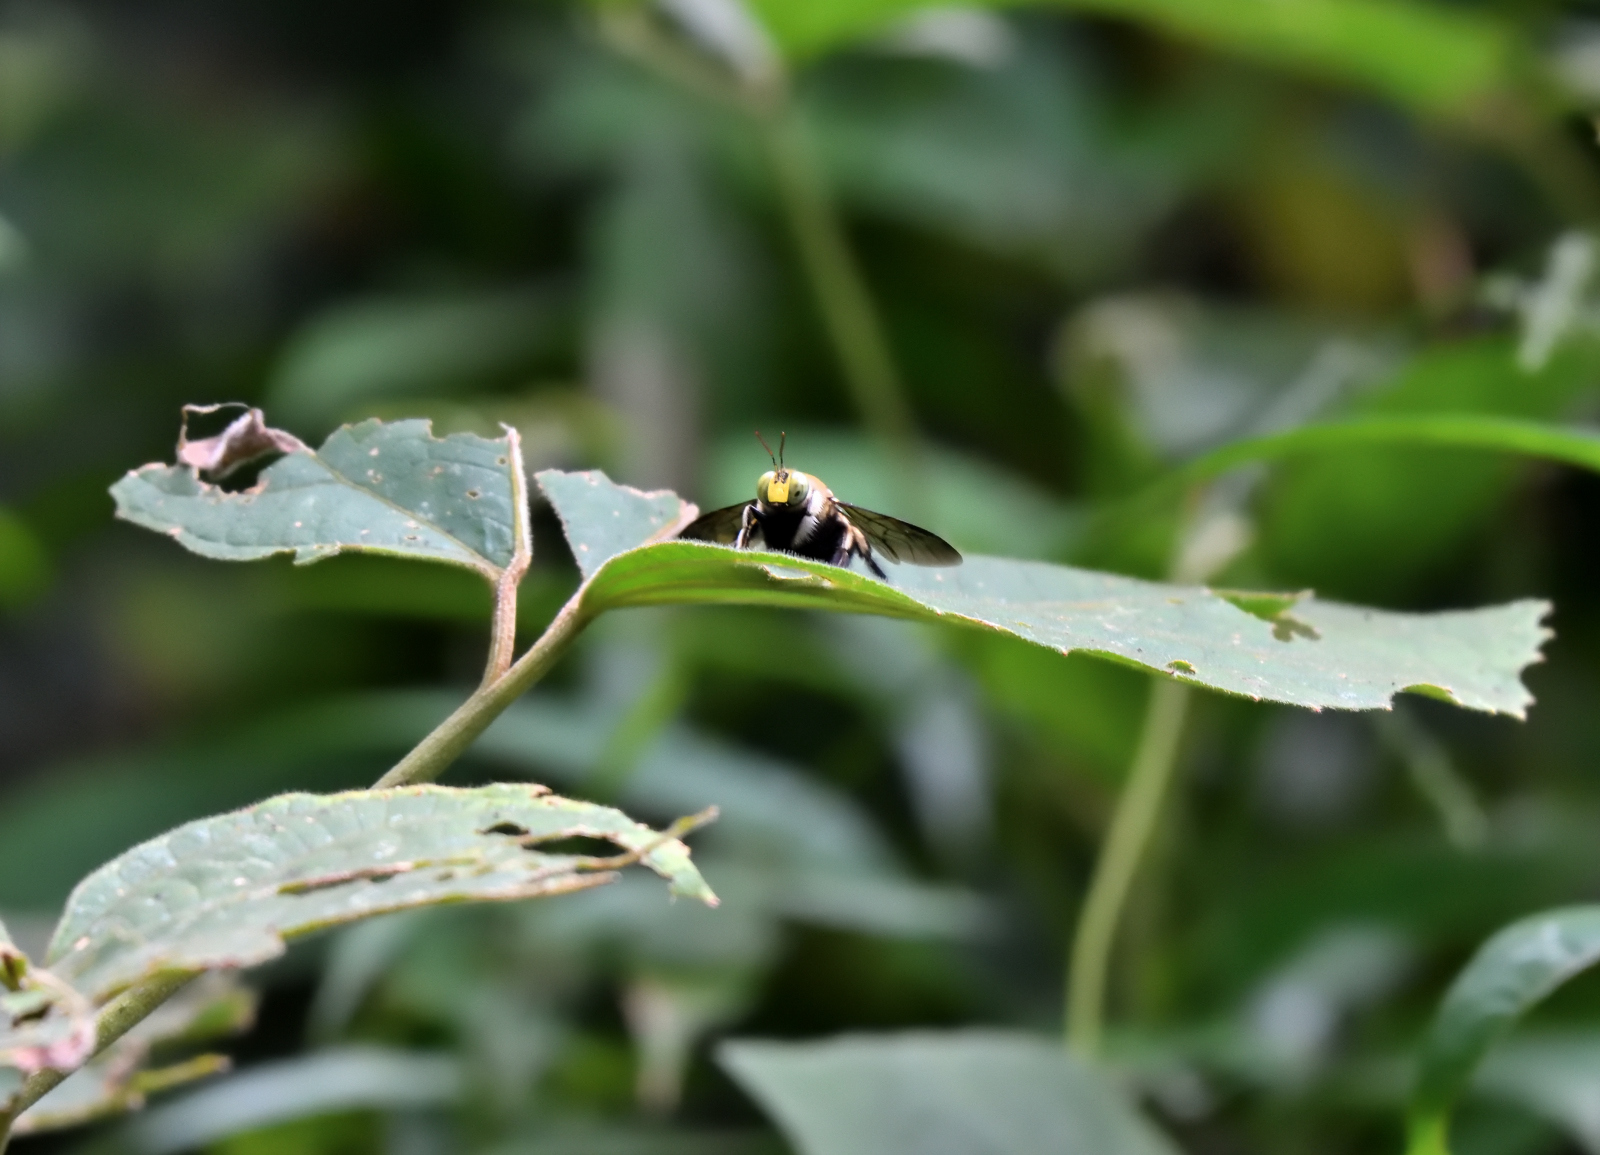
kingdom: Animalia
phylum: Arthropoda
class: Insecta
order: Hymenoptera
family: Apidae
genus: Xylocopa
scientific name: Xylocopa bhowara
